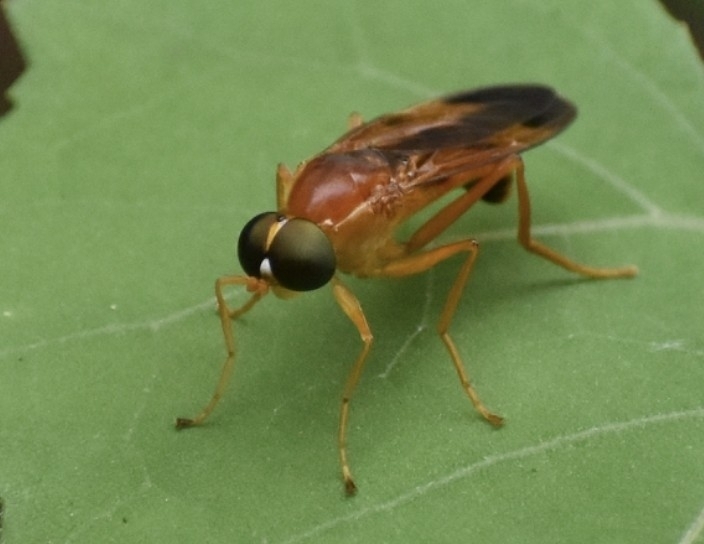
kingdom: Animalia
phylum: Arthropoda
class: Insecta
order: Diptera
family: Stratiomyidae
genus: Ptecticus
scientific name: Ptecticus aurifer
